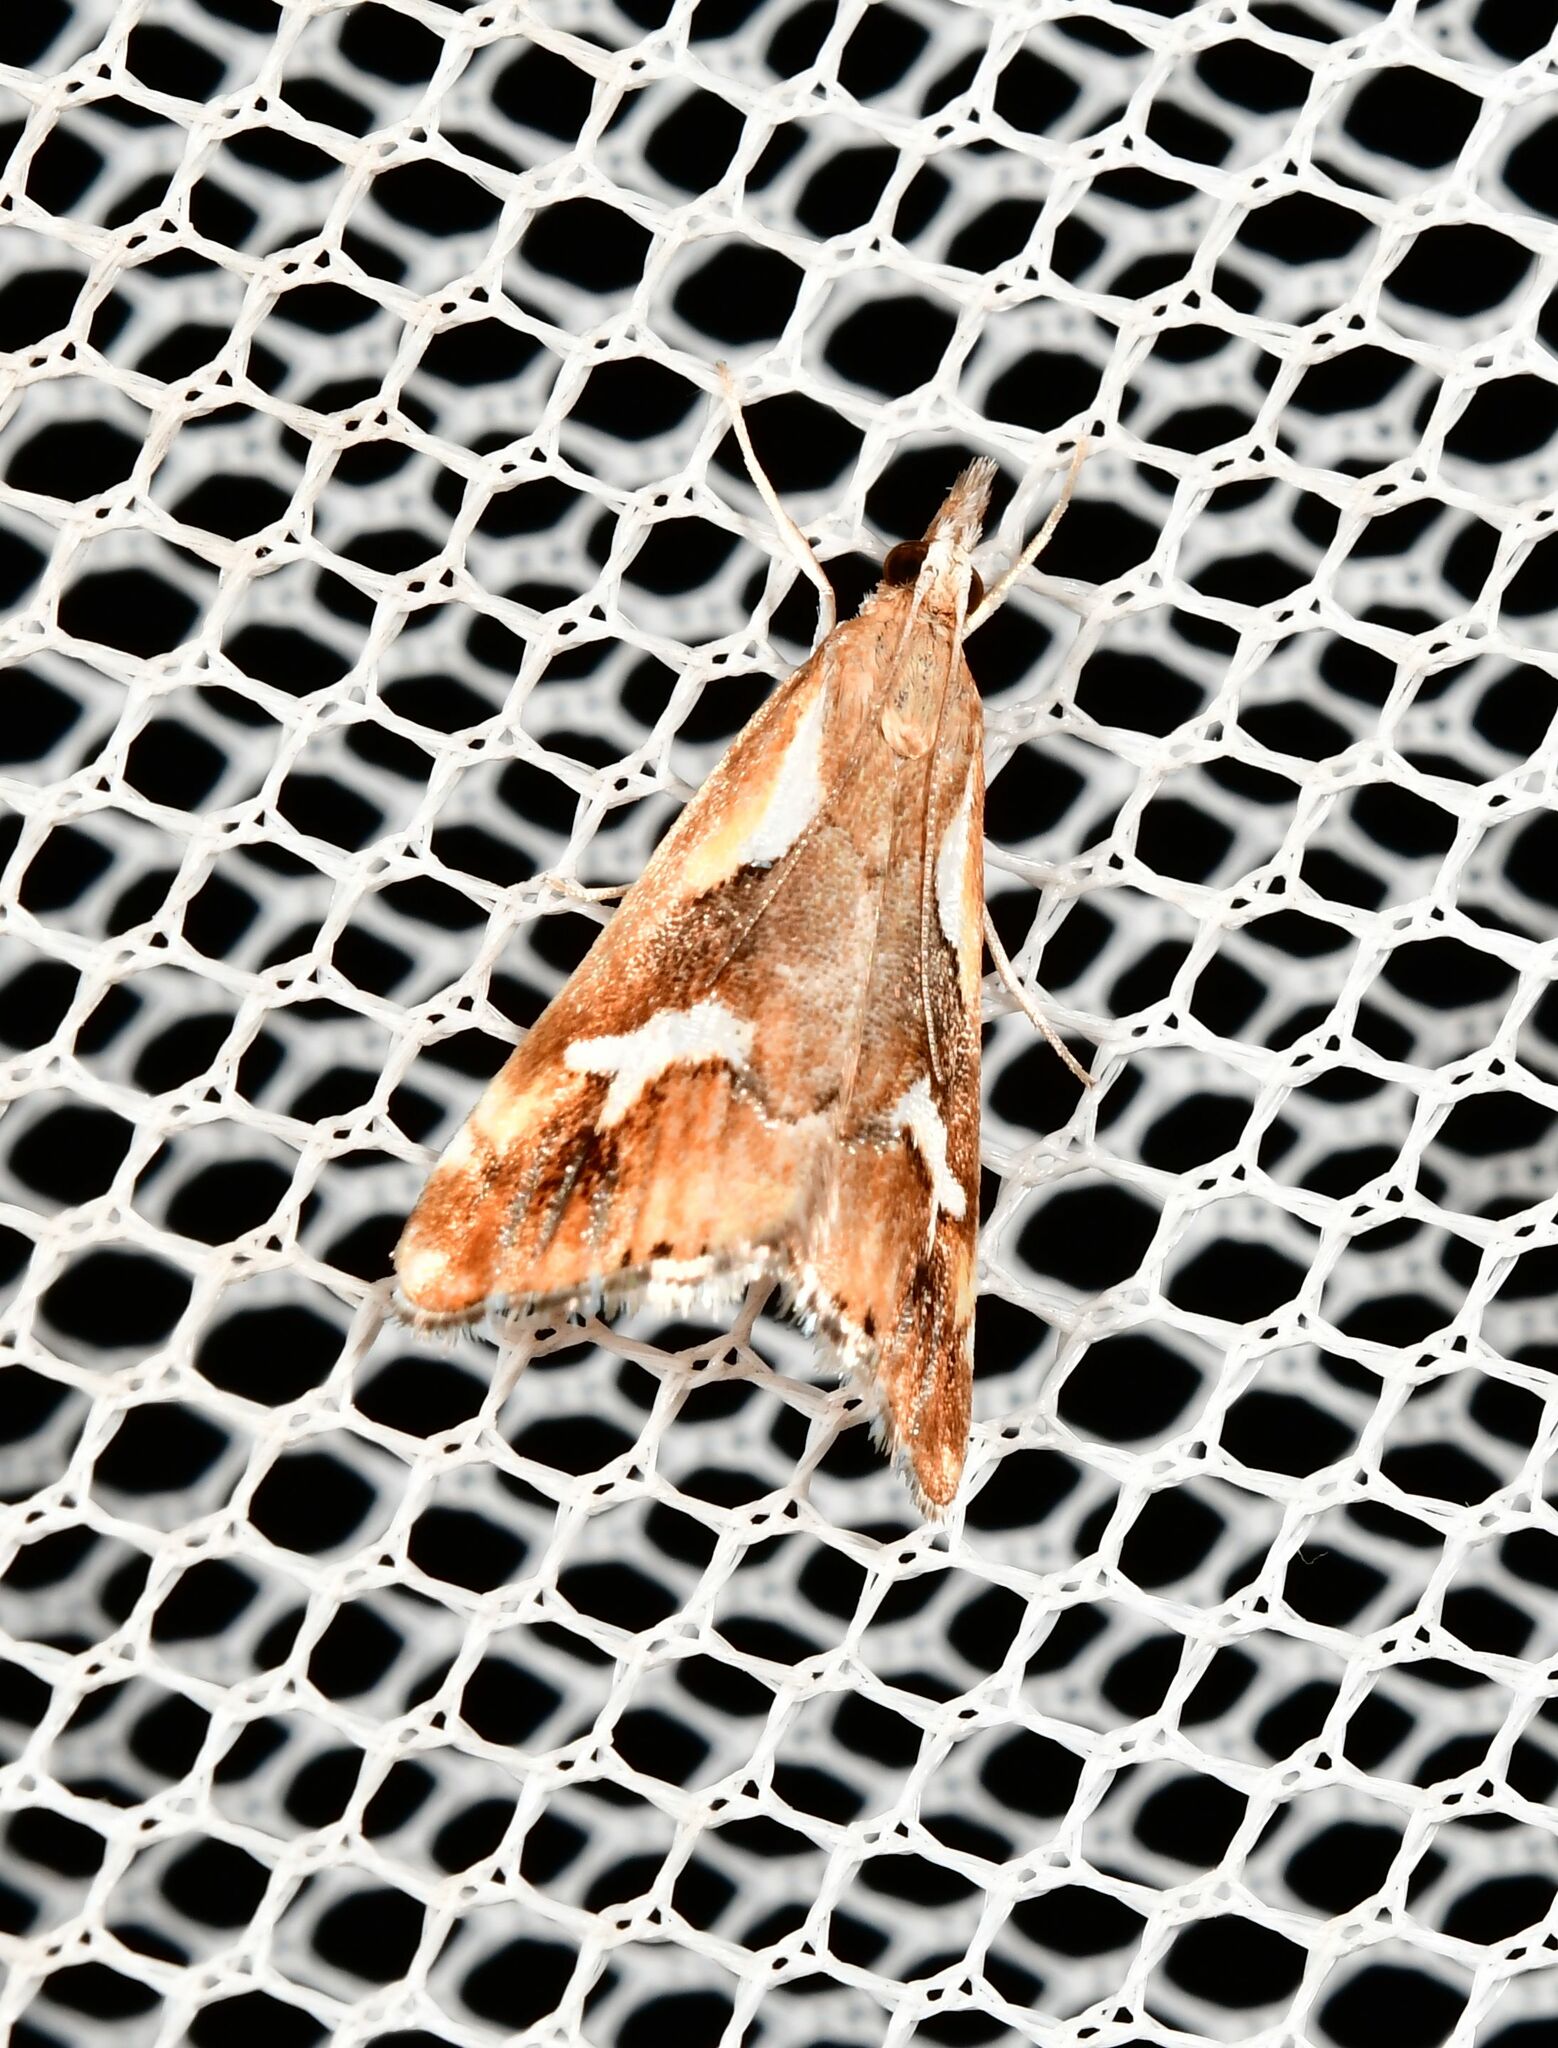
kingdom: Animalia
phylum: Arthropoda
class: Insecta
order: Lepidoptera
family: Crambidae
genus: Glaucocharis
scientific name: Glaucocharis interruptus
